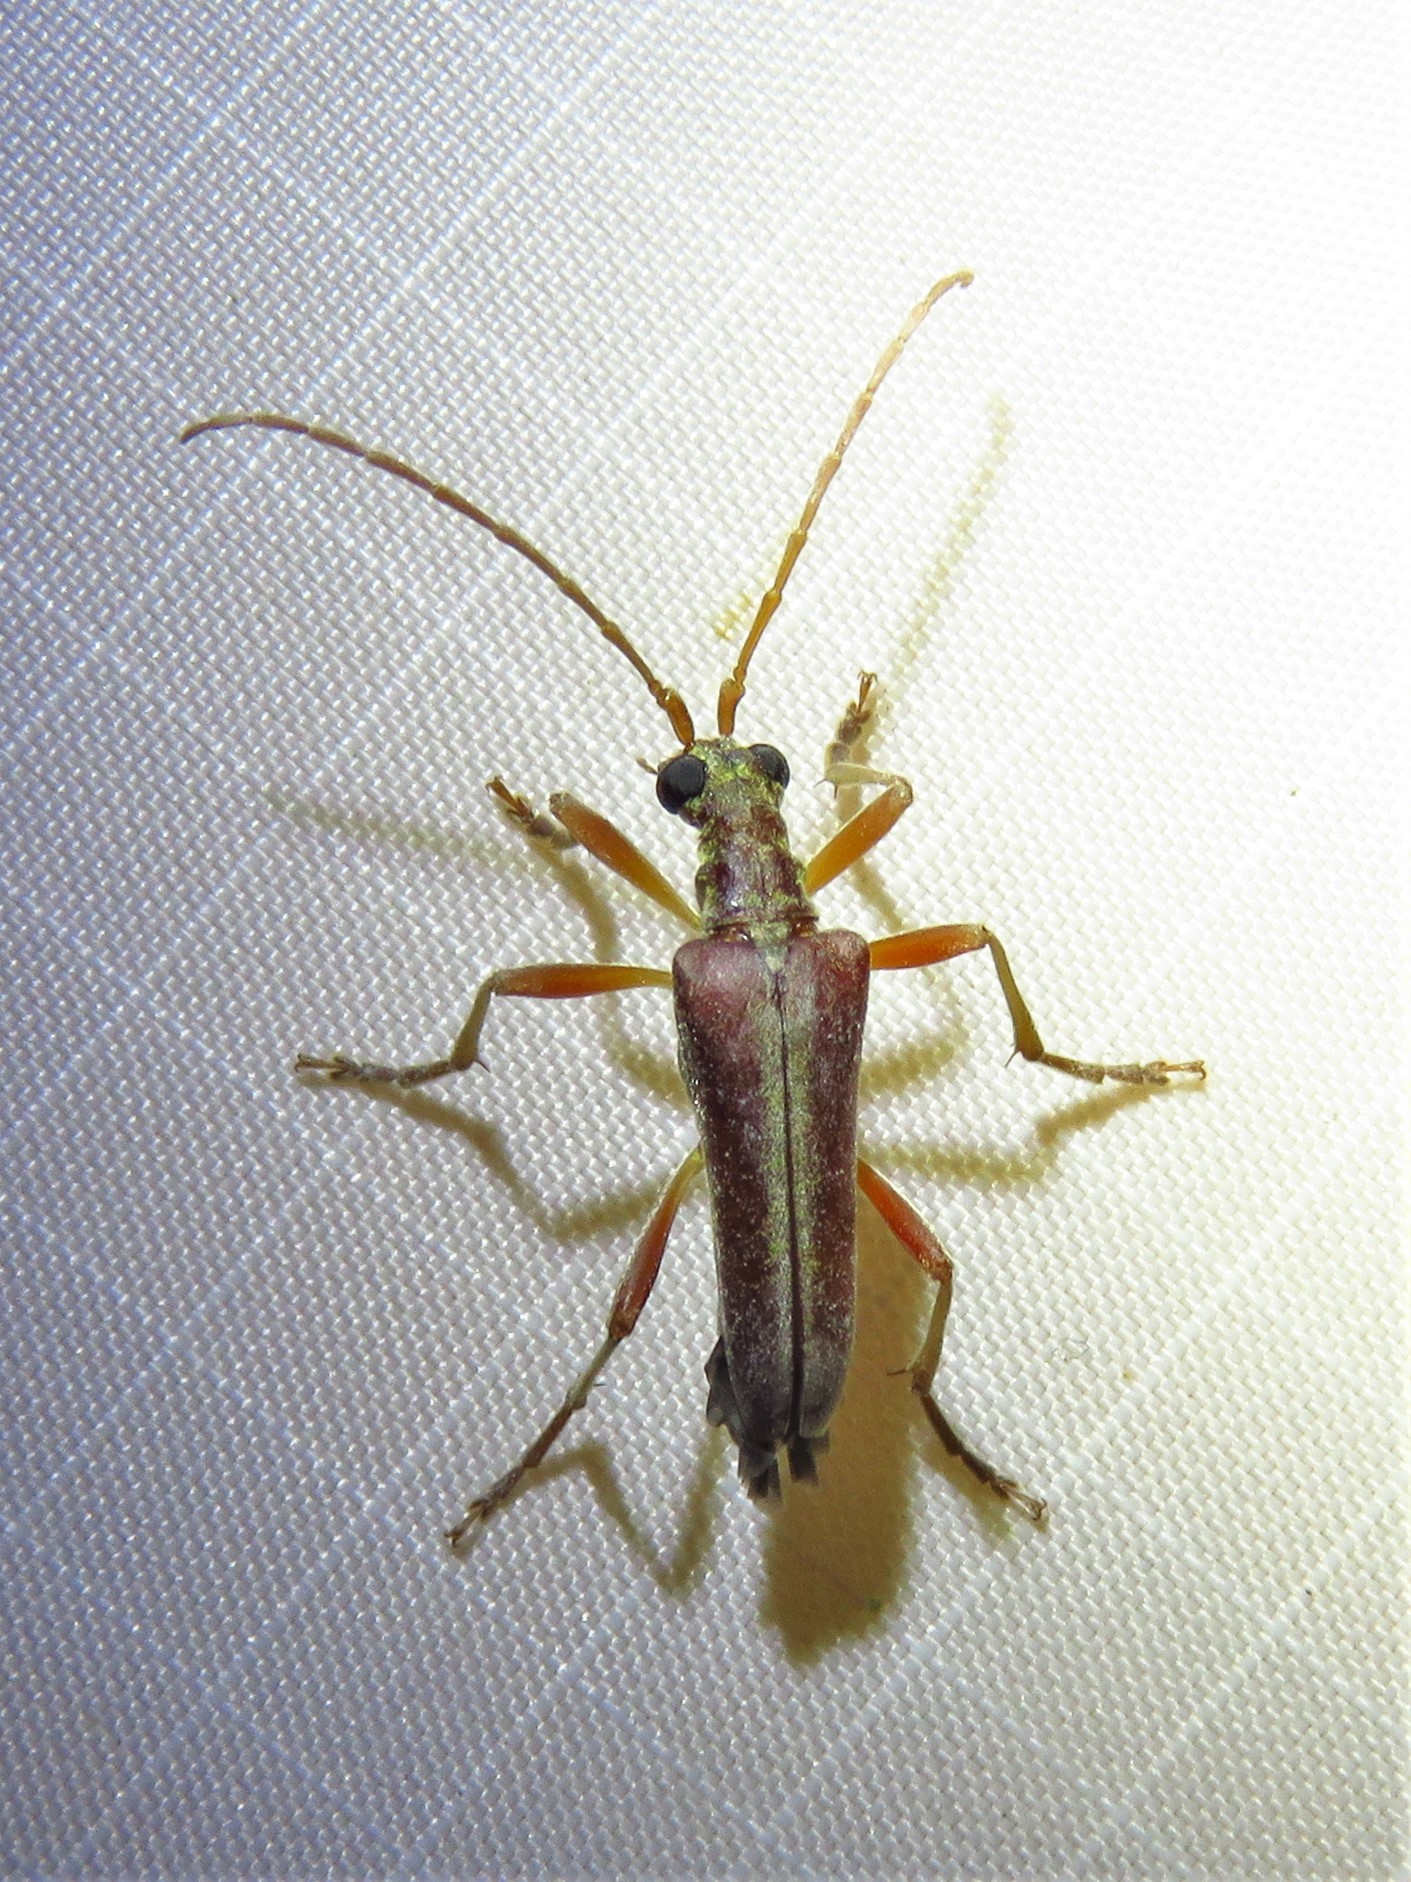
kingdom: Animalia
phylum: Arthropoda
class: Insecta
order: Coleoptera
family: Cerambycidae
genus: Stenocorus
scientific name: Stenocorus cinnamopterus
